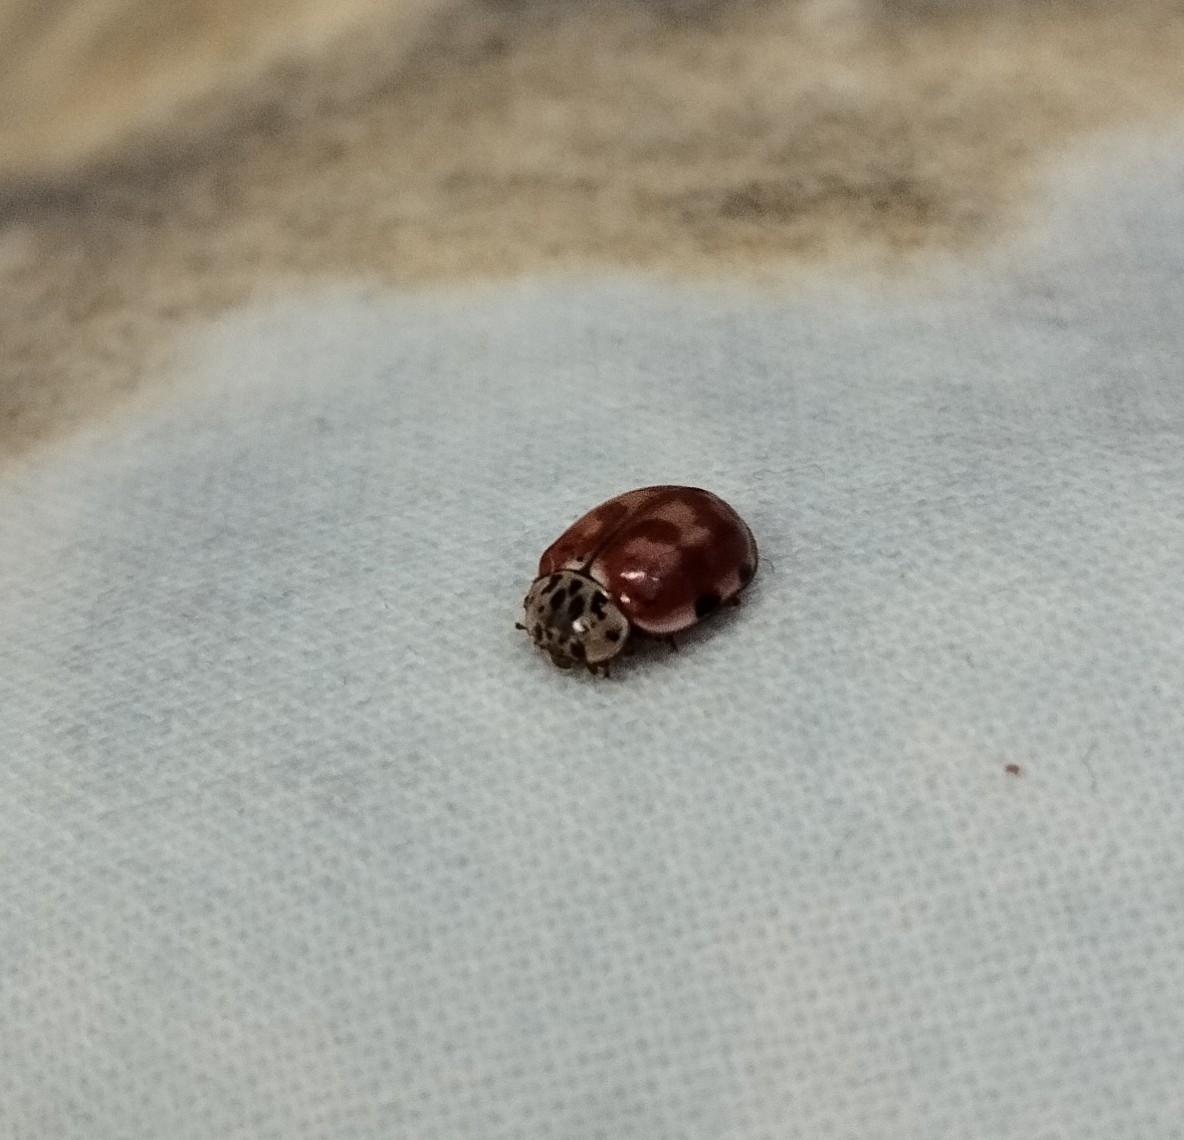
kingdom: Animalia
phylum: Arthropoda
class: Insecta
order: Coleoptera
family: Coccinellidae
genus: Harmonia
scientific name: Harmonia quadripunctata
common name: Cream-streaked ladybird
